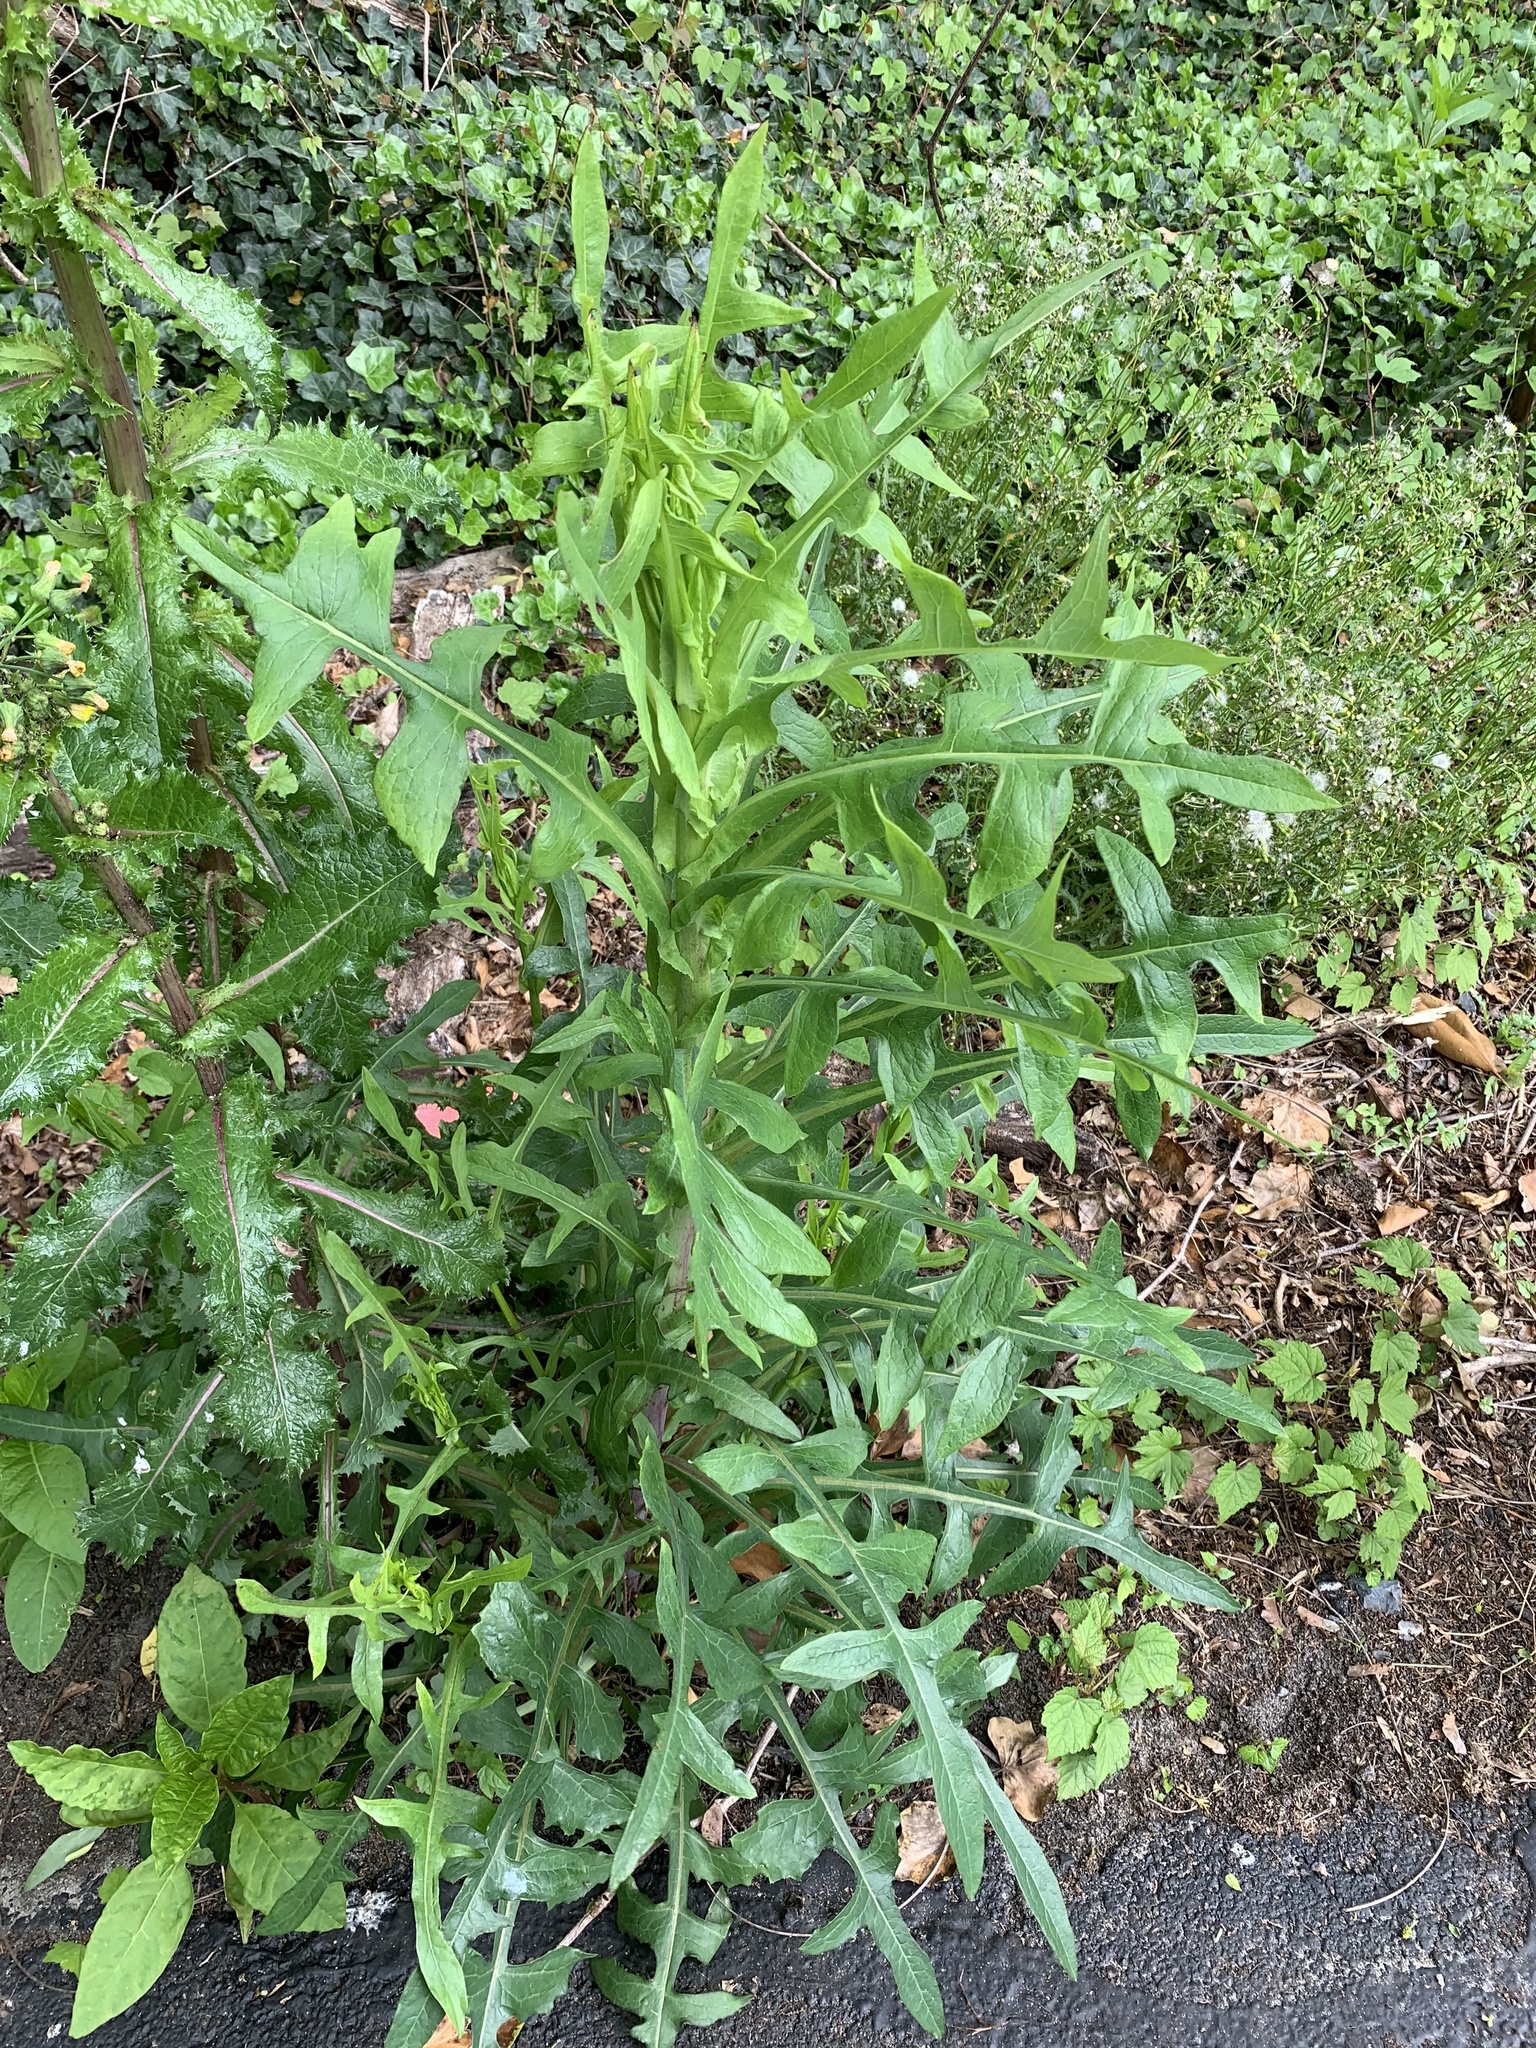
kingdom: Plantae
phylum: Tracheophyta
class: Magnoliopsida
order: Asterales
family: Asteraceae
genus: Lactuca
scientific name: Lactuca canadensis
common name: Canada lettuce
